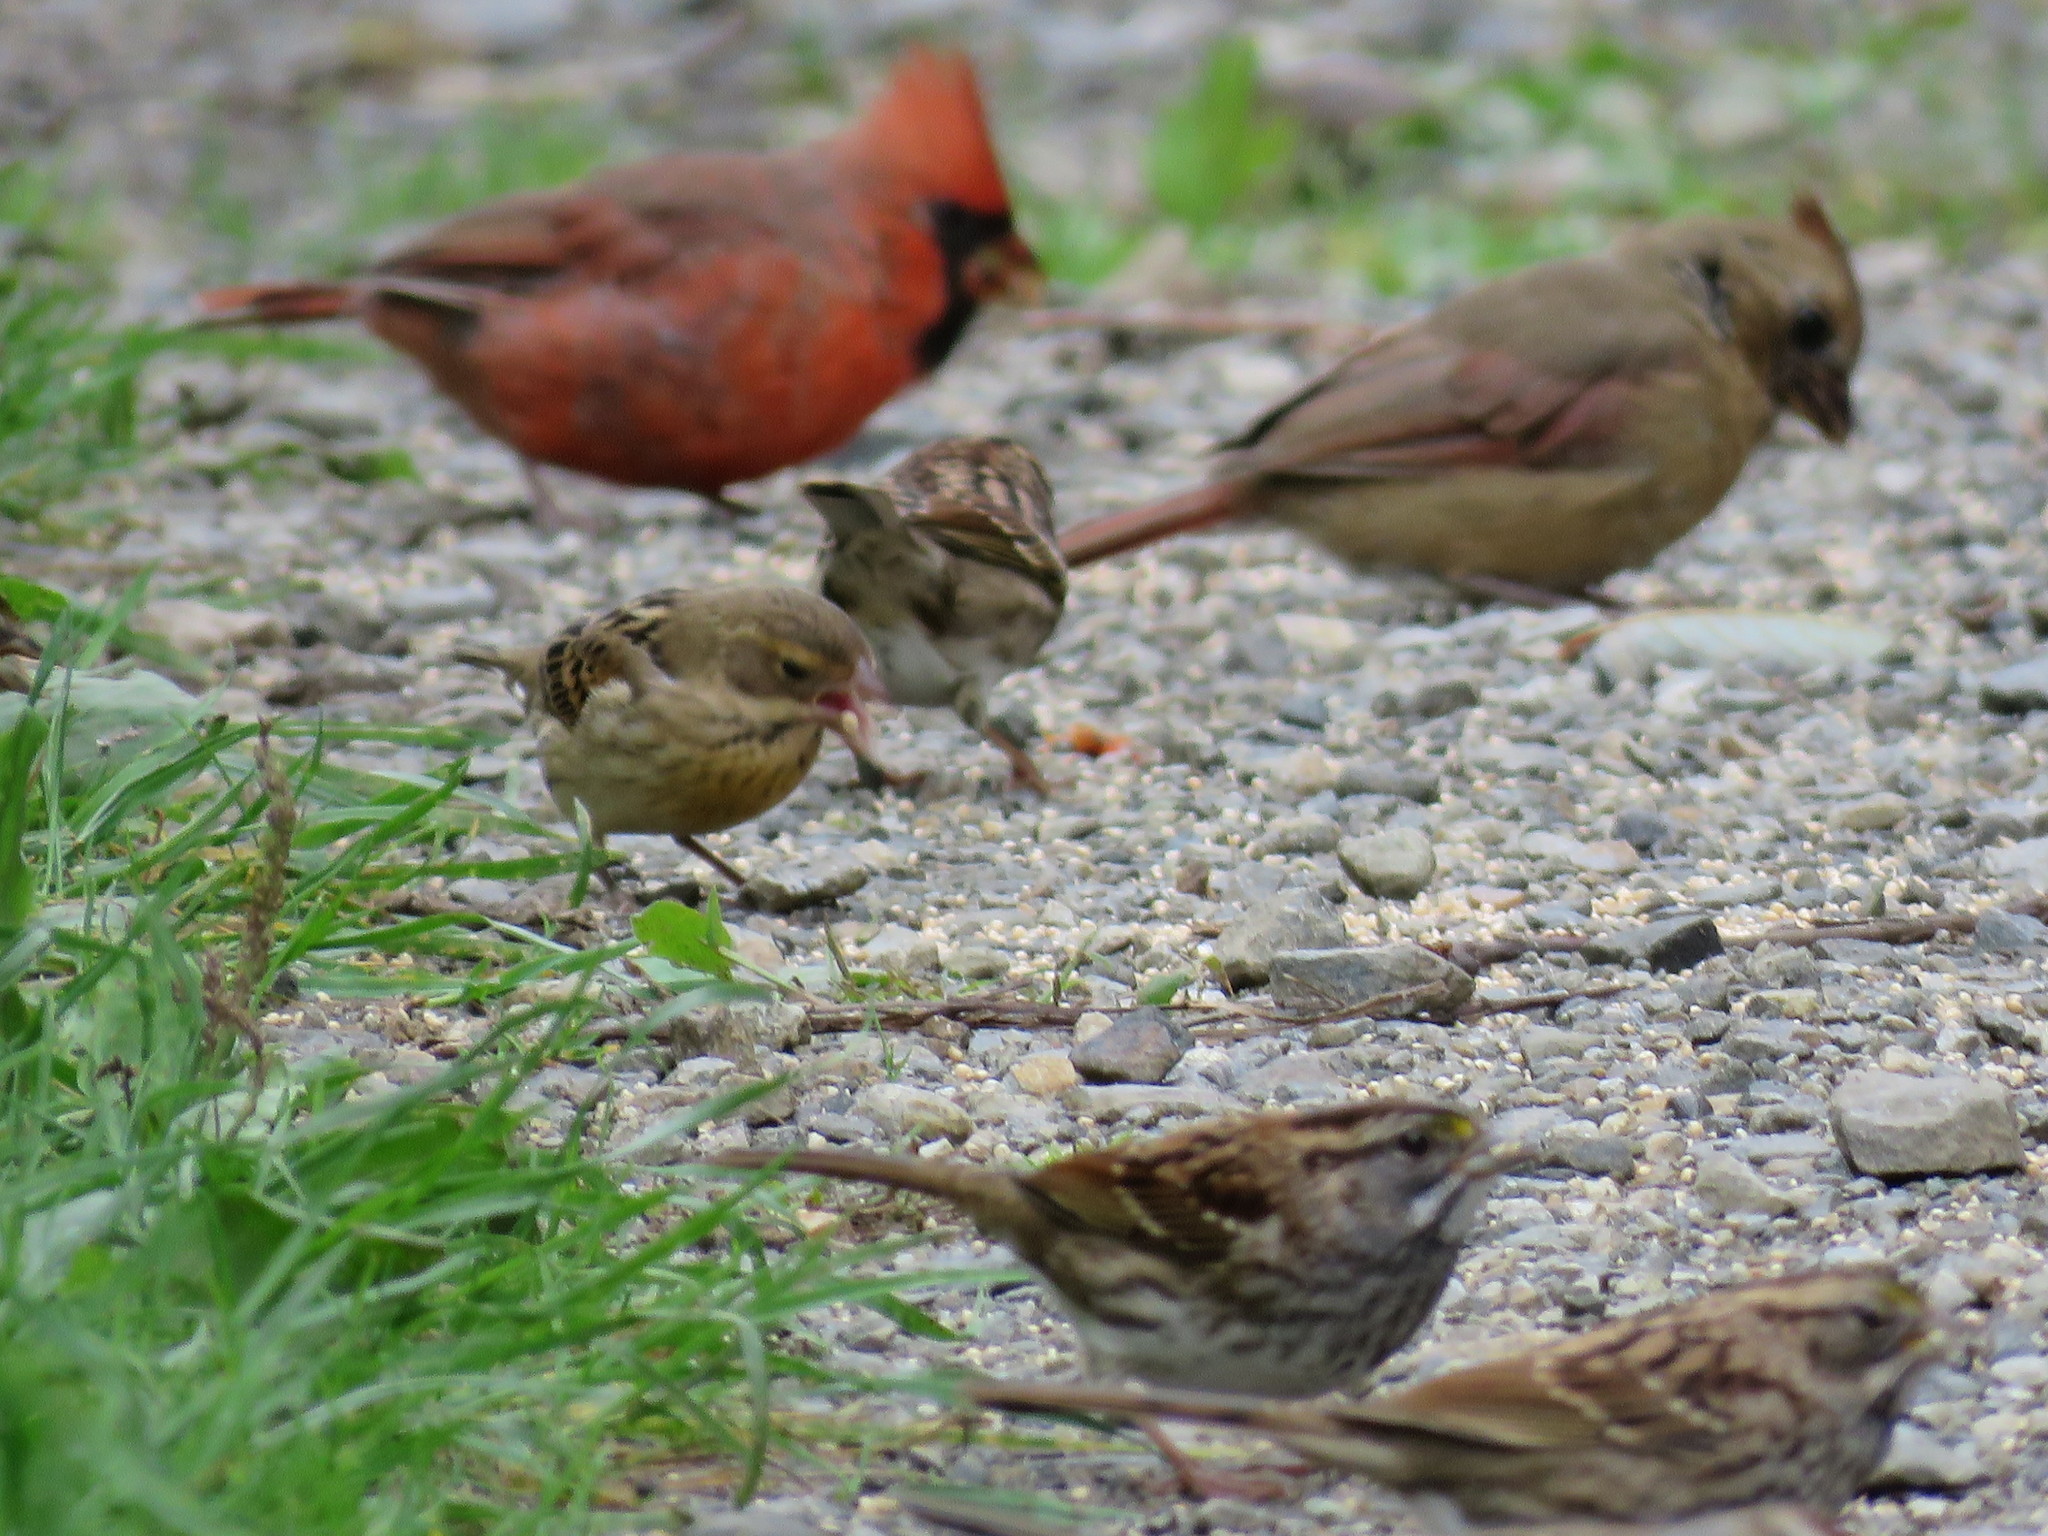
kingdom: Animalia
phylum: Chordata
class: Aves
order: Passeriformes
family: Cardinalidae
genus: Cardinalis
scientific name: Cardinalis cardinalis
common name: Northern cardinal
